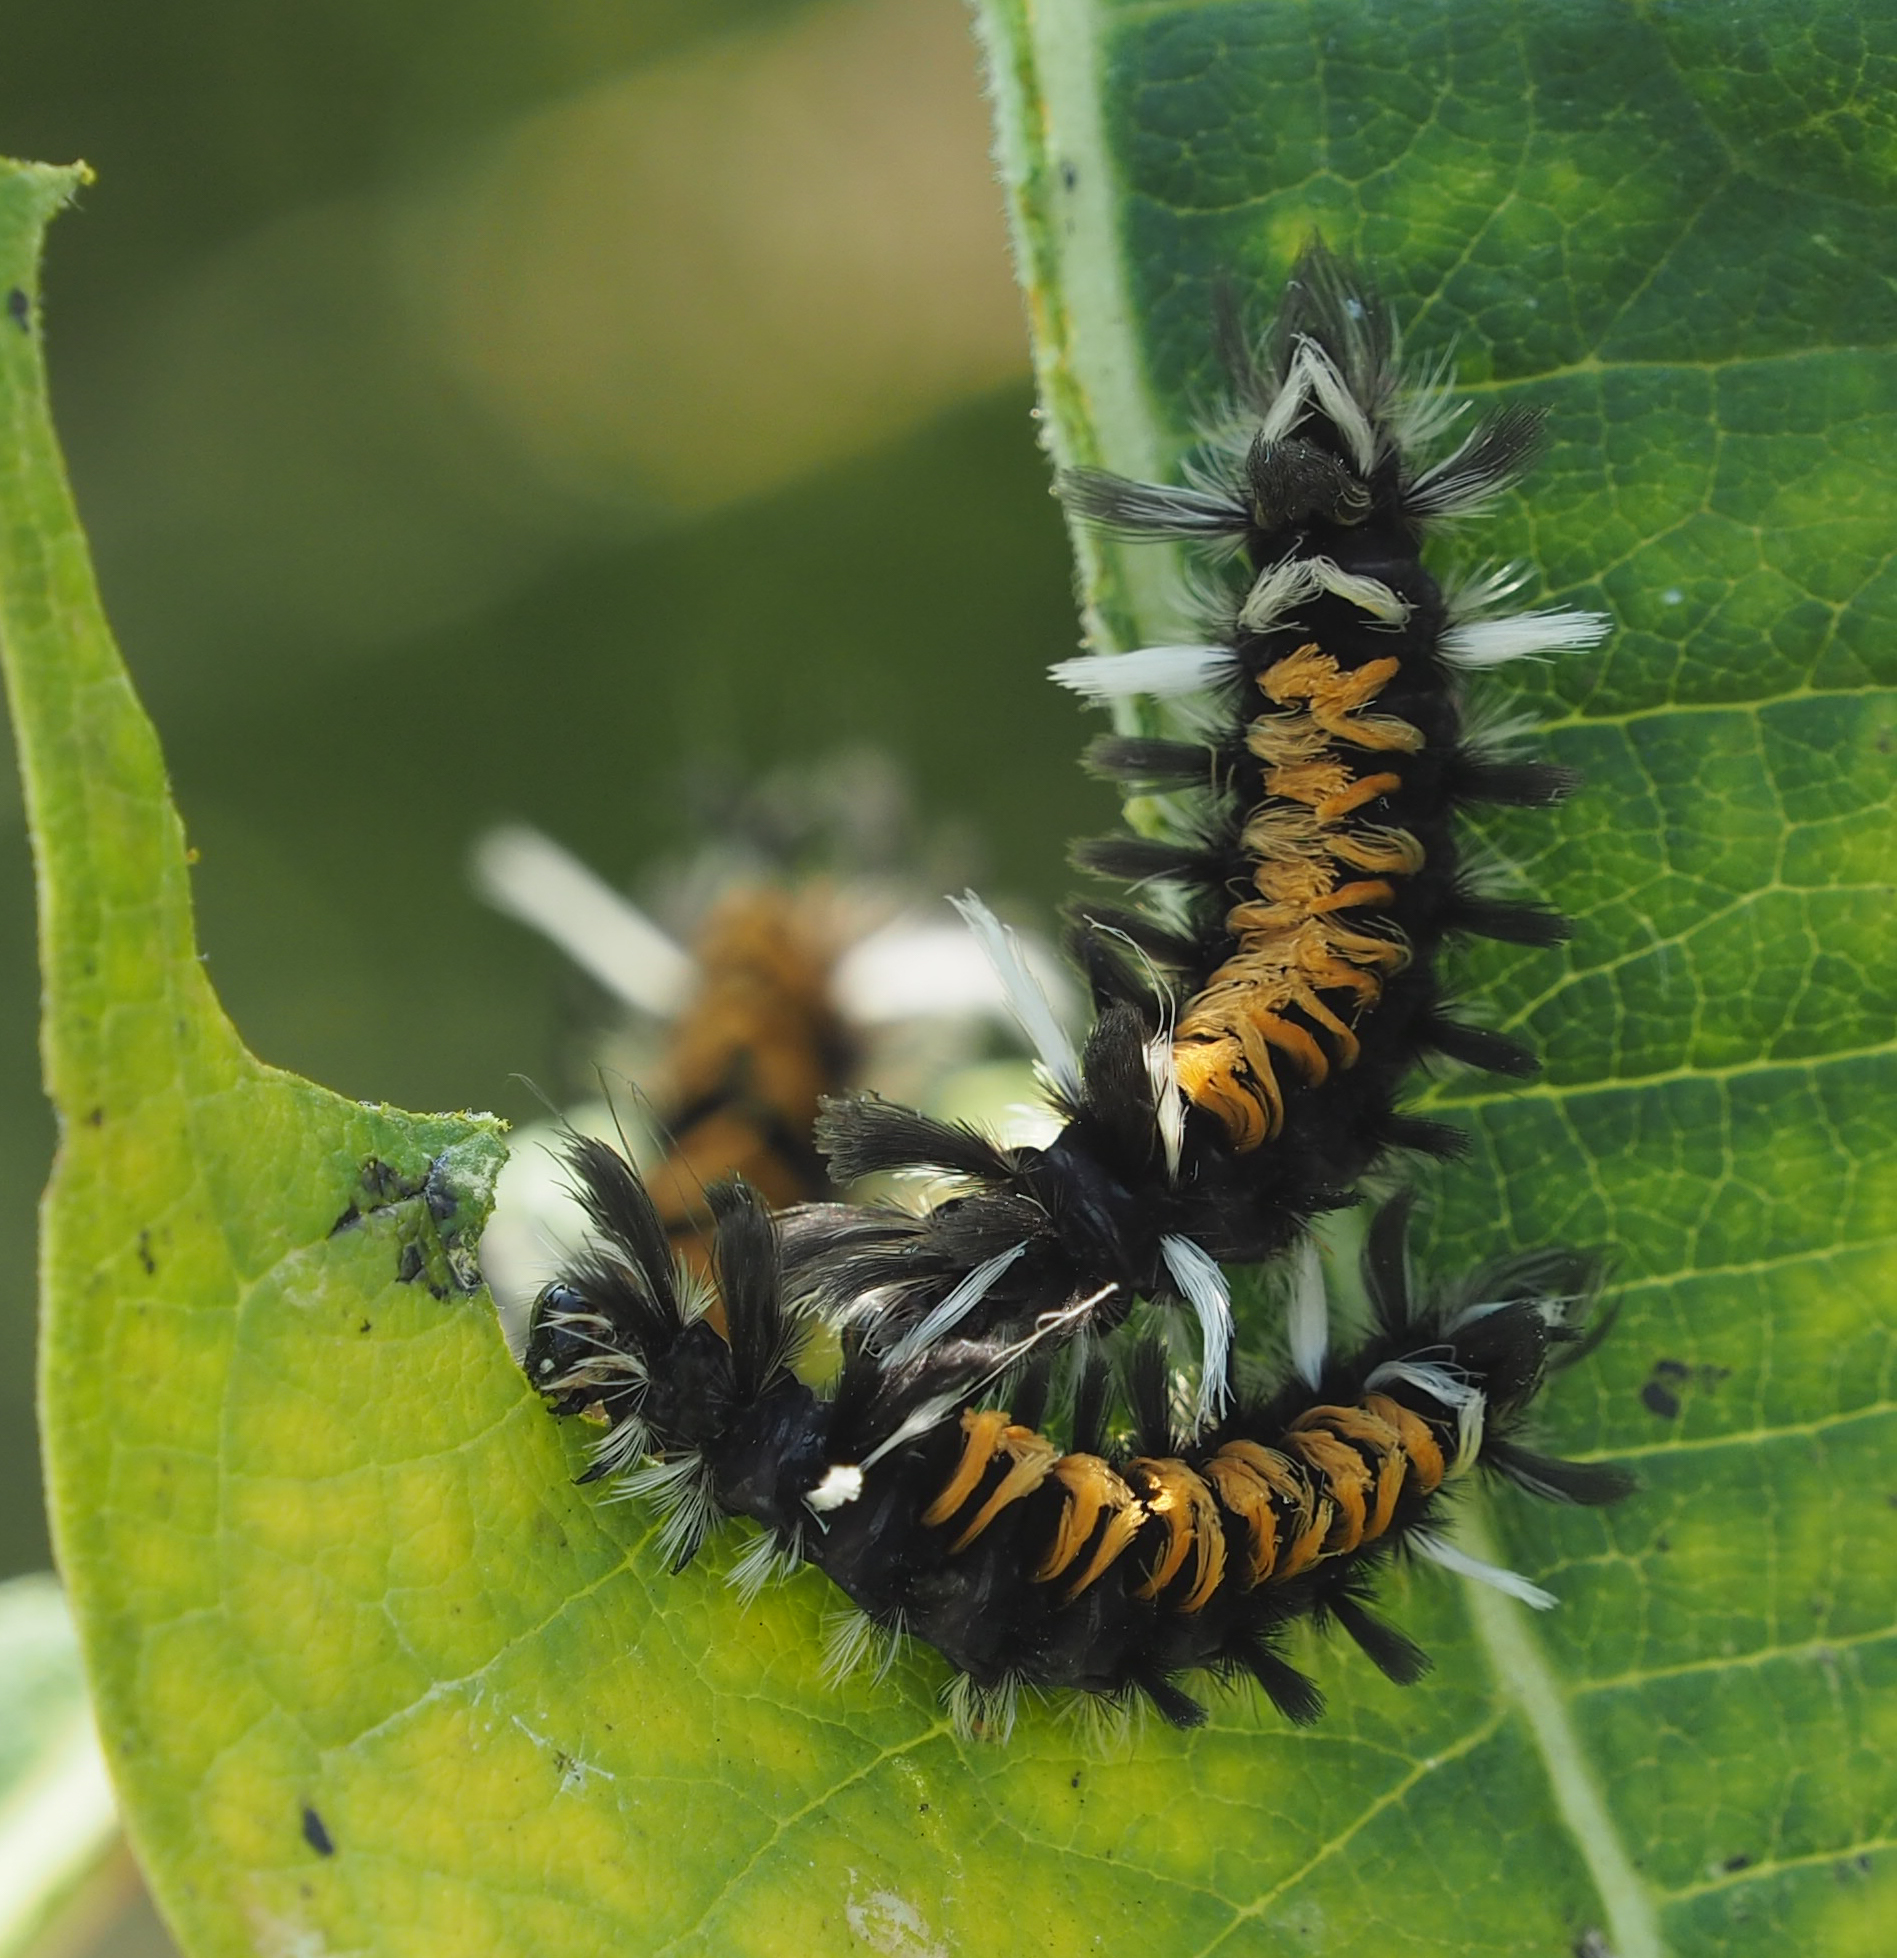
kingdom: Animalia
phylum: Arthropoda
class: Insecta
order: Lepidoptera
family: Erebidae
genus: Euchaetes
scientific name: Euchaetes egle
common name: Milkweed tussock moth
